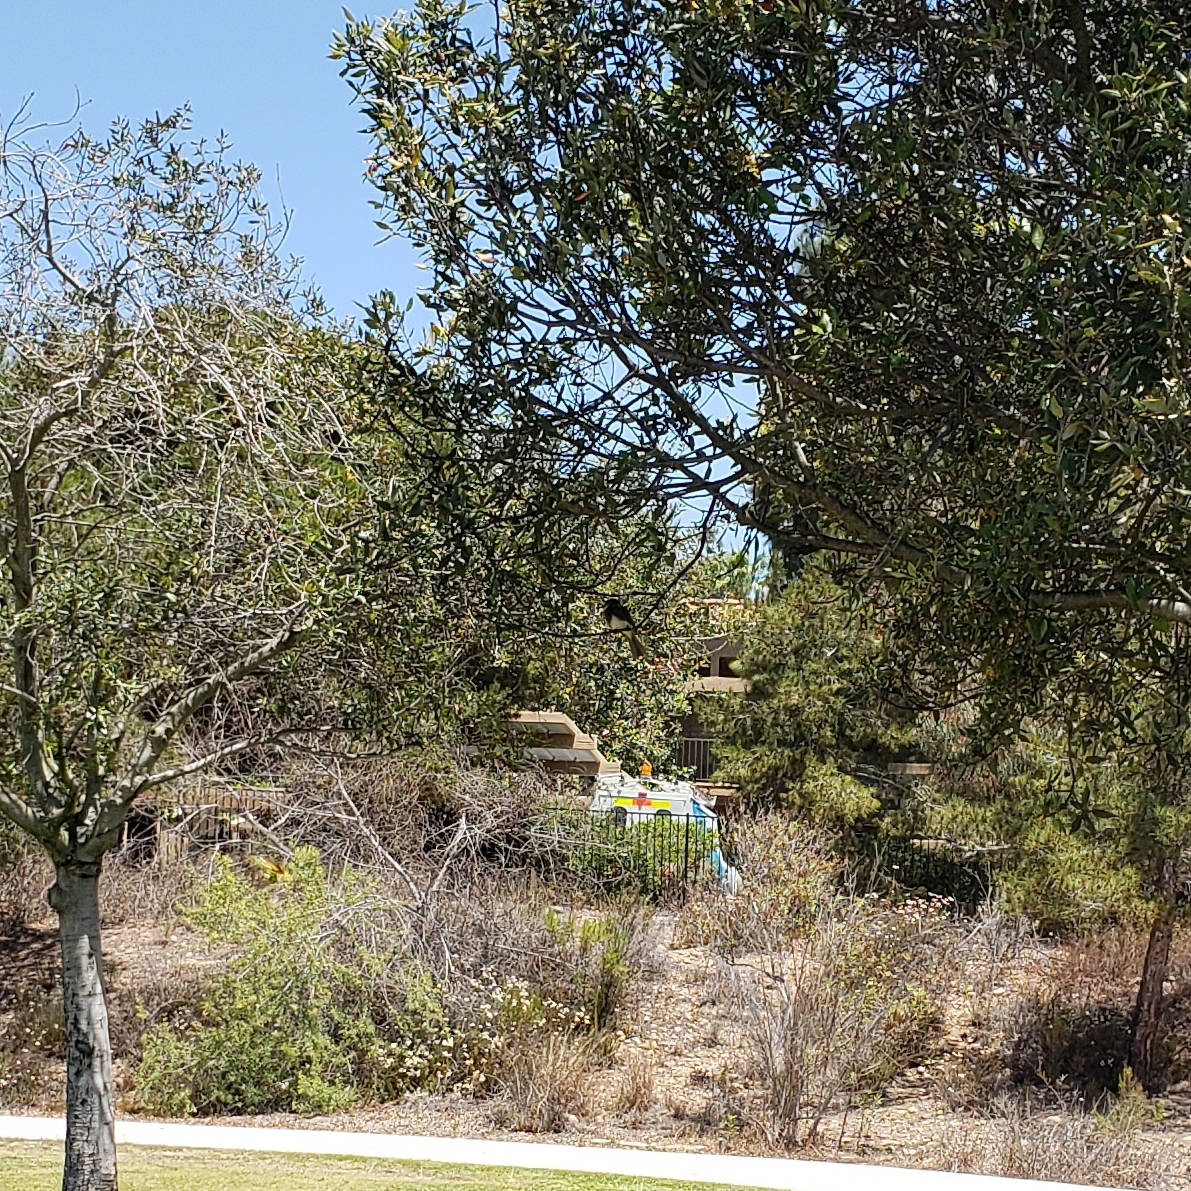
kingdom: Animalia
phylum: Chordata
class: Aves
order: Passeriformes
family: Tyrannidae
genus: Sayornis
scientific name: Sayornis nigricans
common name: Black phoebe
